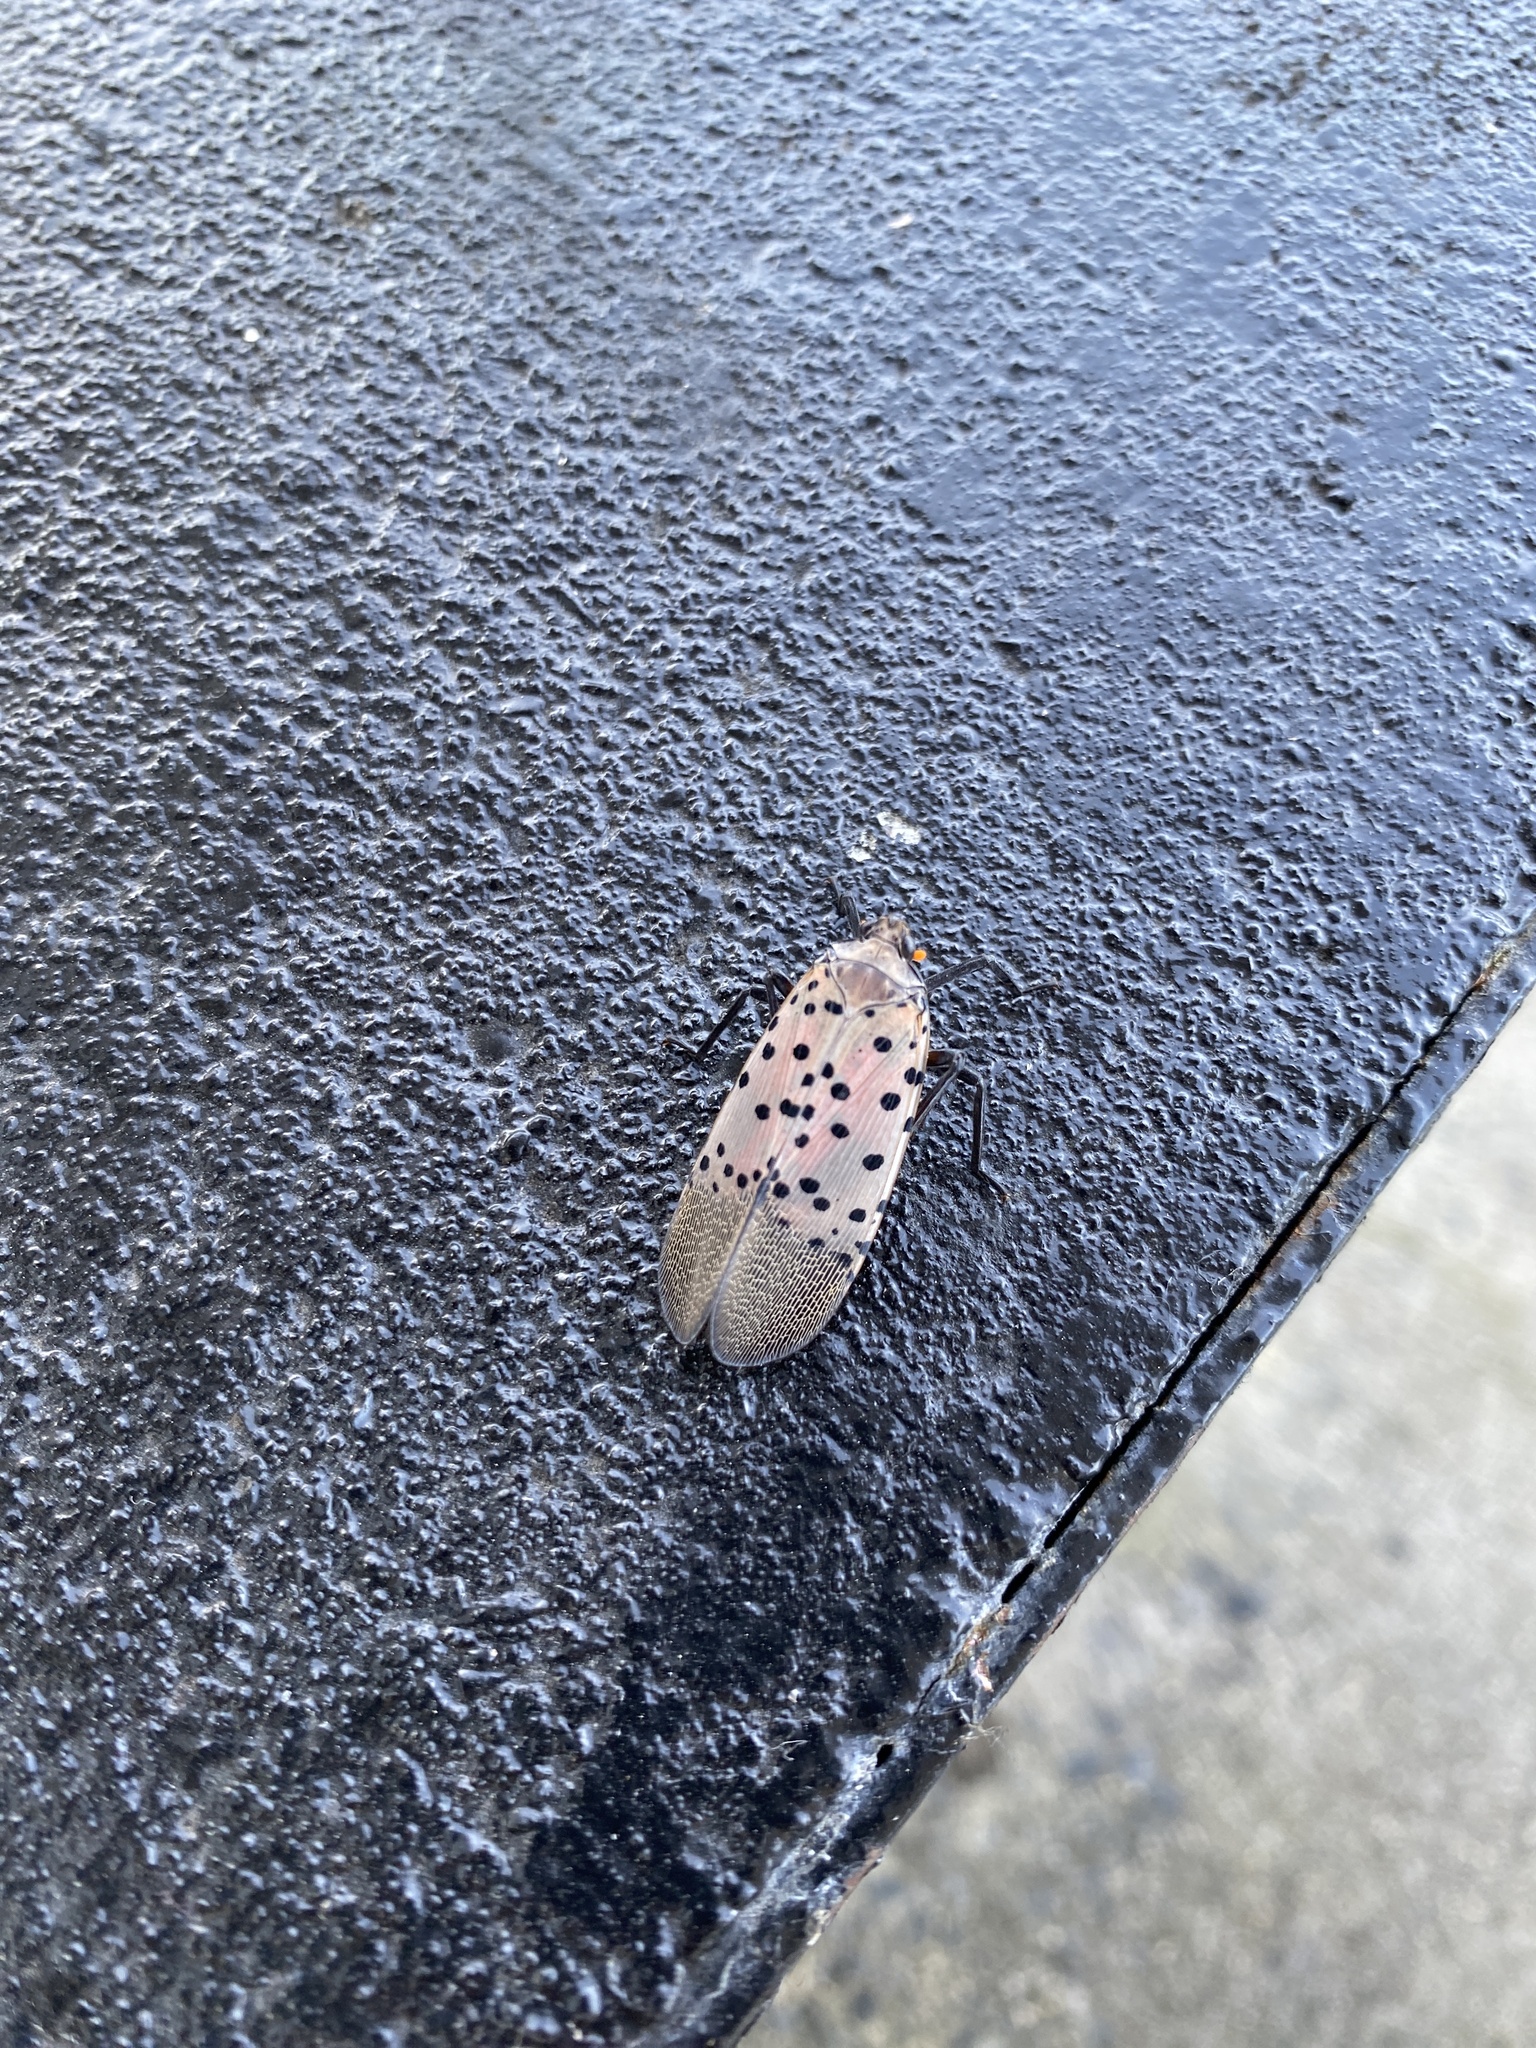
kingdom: Animalia
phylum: Arthropoda
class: Insecta
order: Hemiptera
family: Fulgoridae
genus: Lycorma
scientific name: Lycorma delicatula
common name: Spotted lanternfly
